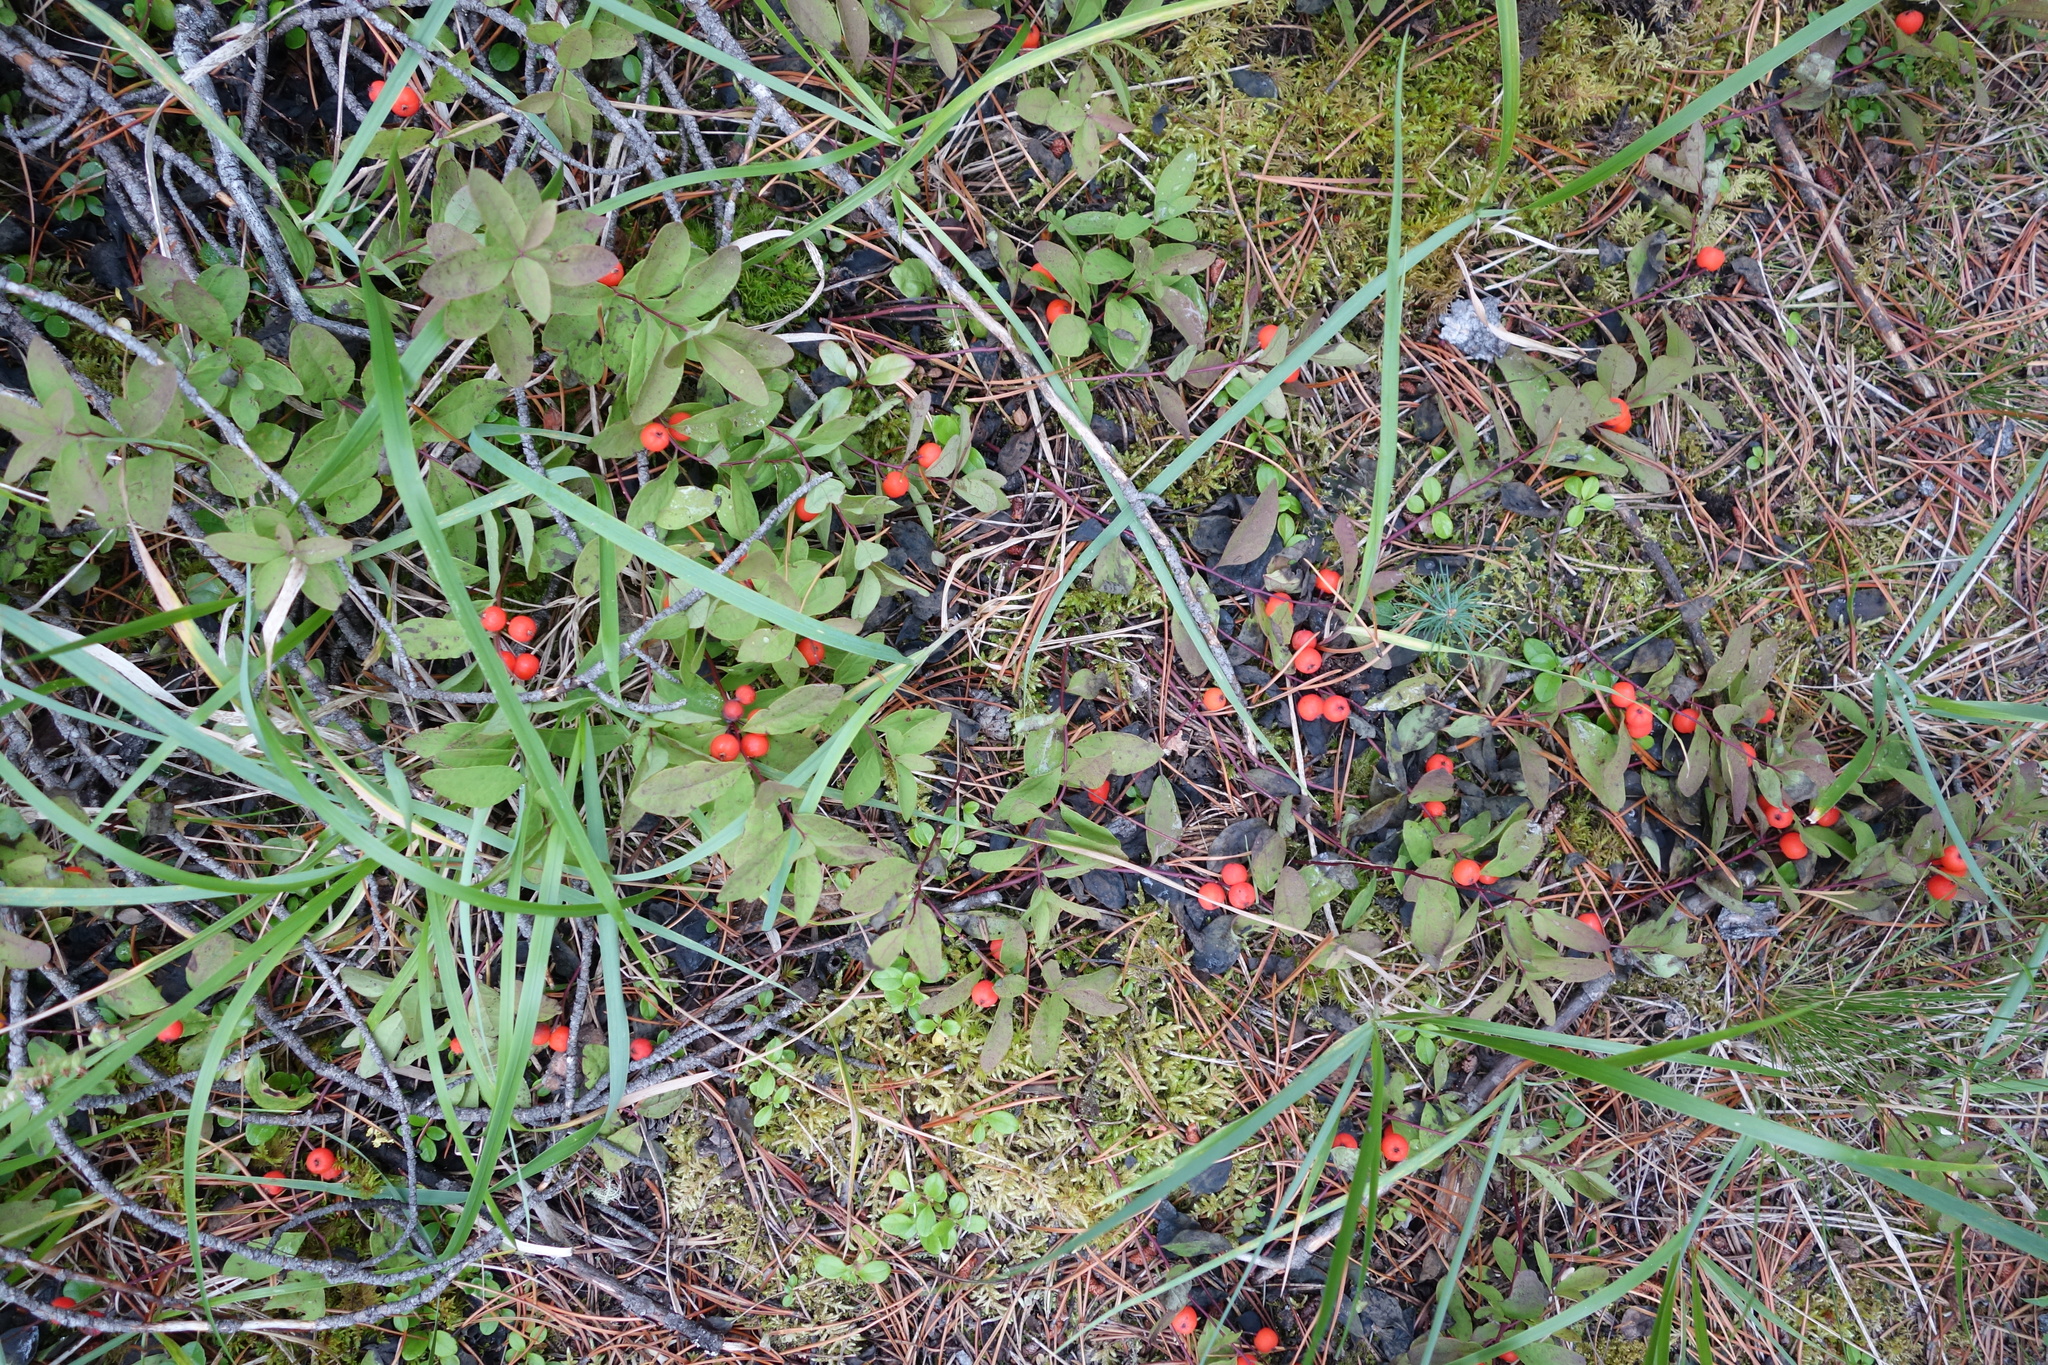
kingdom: Plantae
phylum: Tracheophyta
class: Magnoliopsida
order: Santalales
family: Comandraceae
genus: Geocaulon
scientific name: Geocaulon lividum
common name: Earthberry
